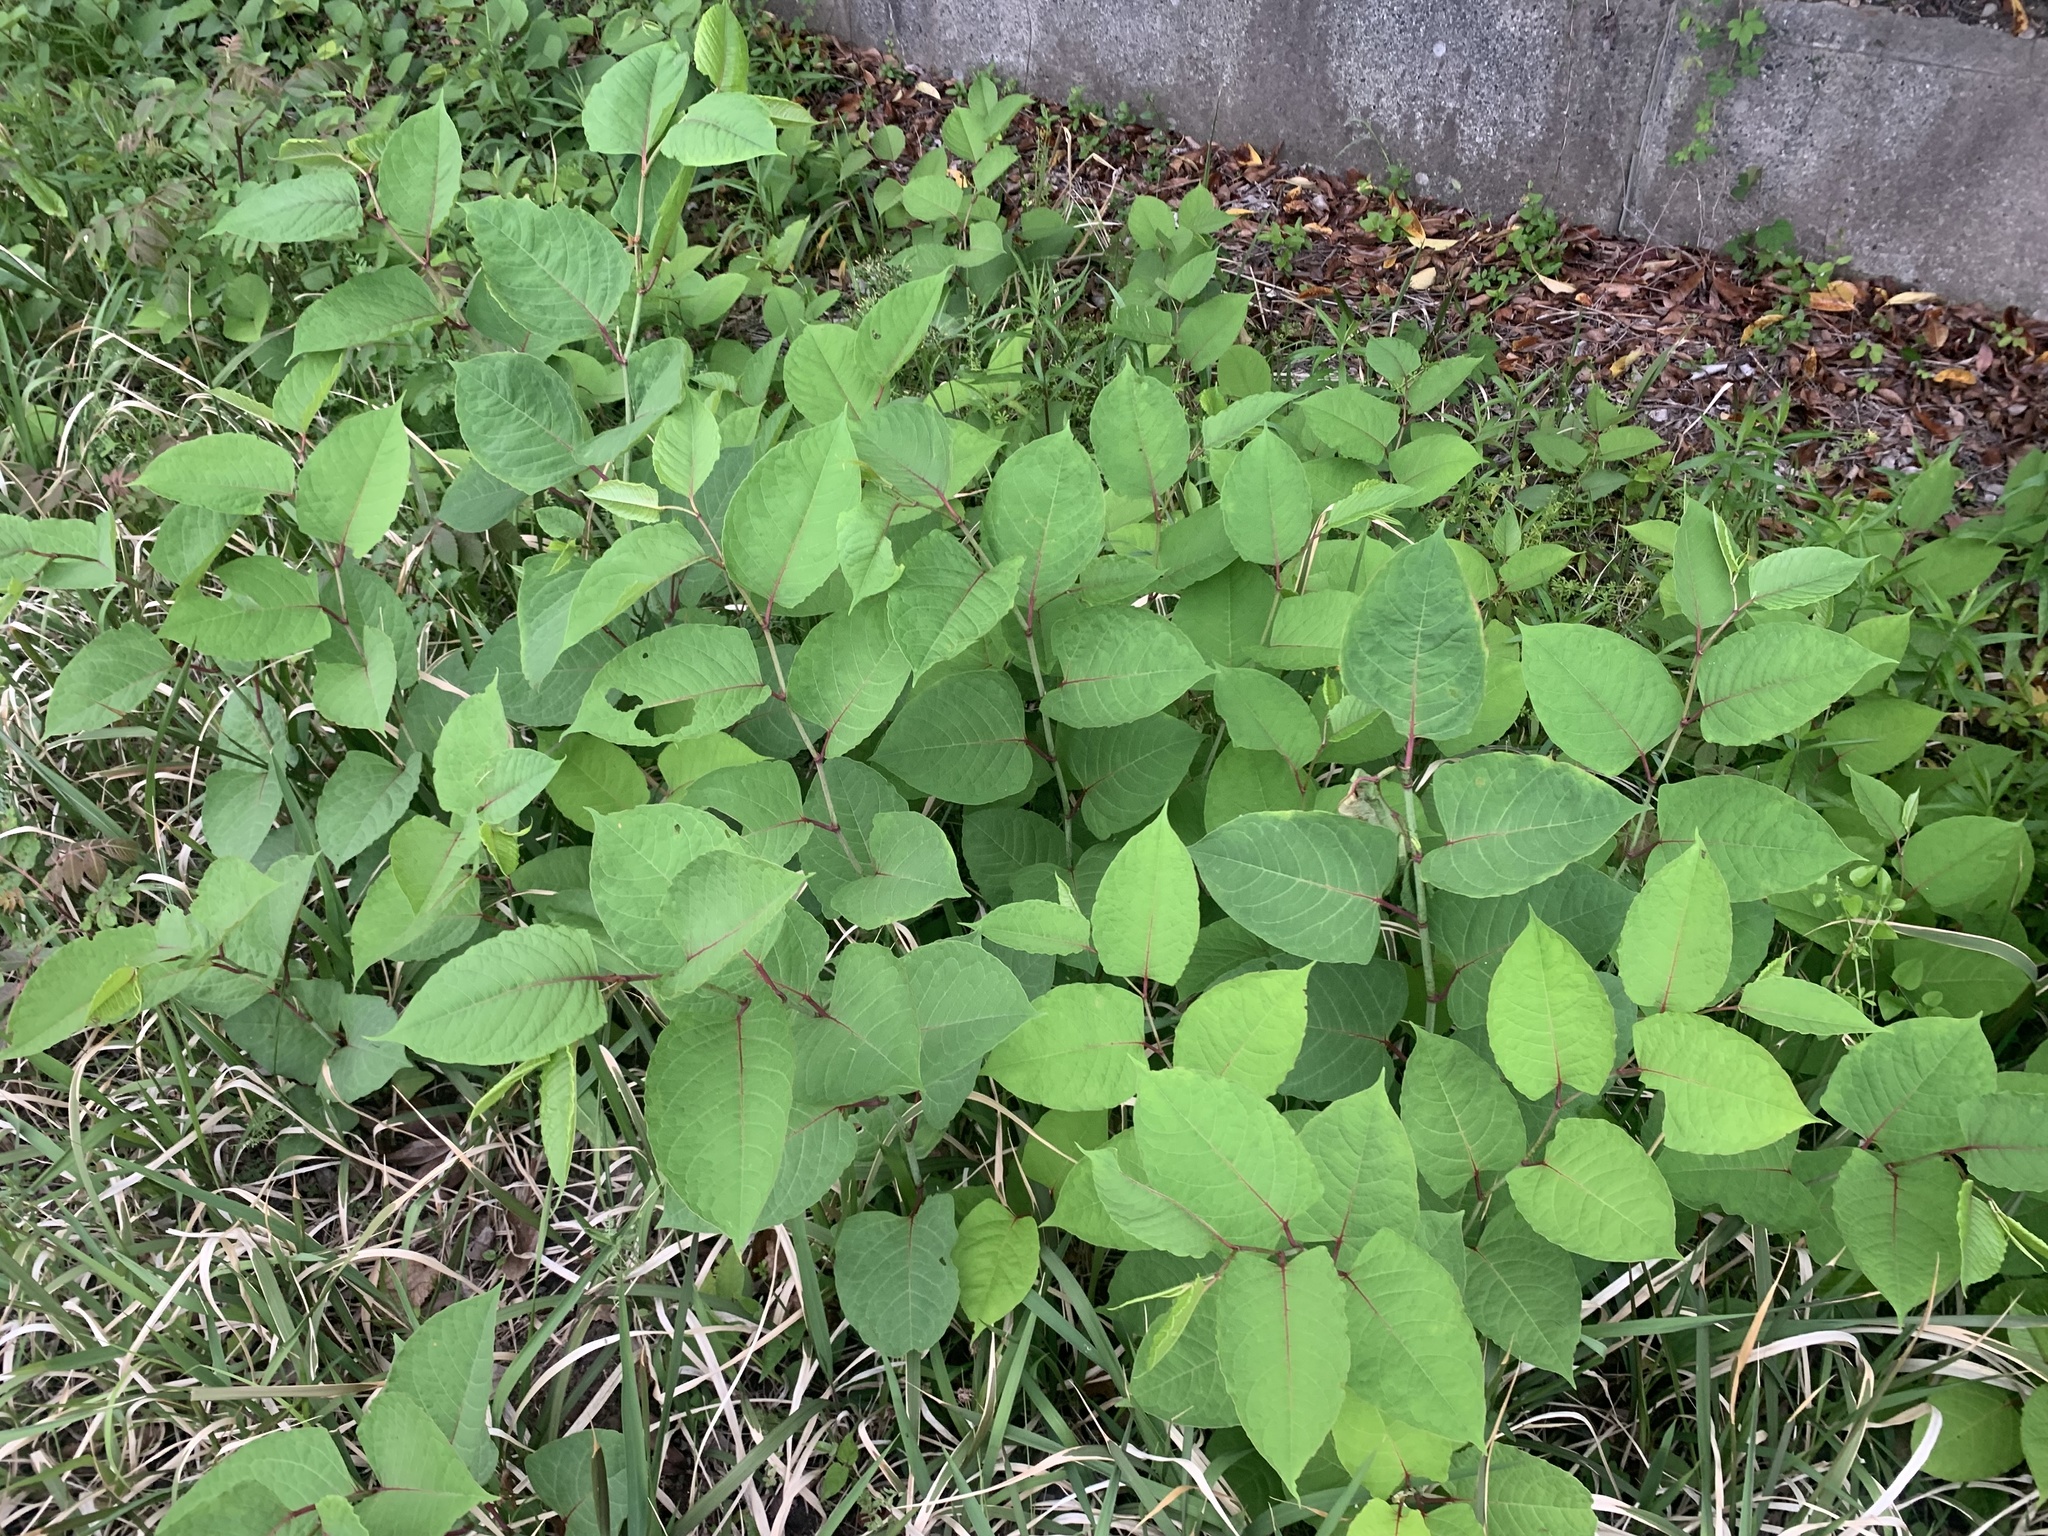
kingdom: Plantae
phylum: Tracheophyta
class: Magnoliopsida
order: Caryophyllales
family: Polygonaceae
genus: Reynoutria
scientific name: Reynoutria japonica
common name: Japanese knotweed
